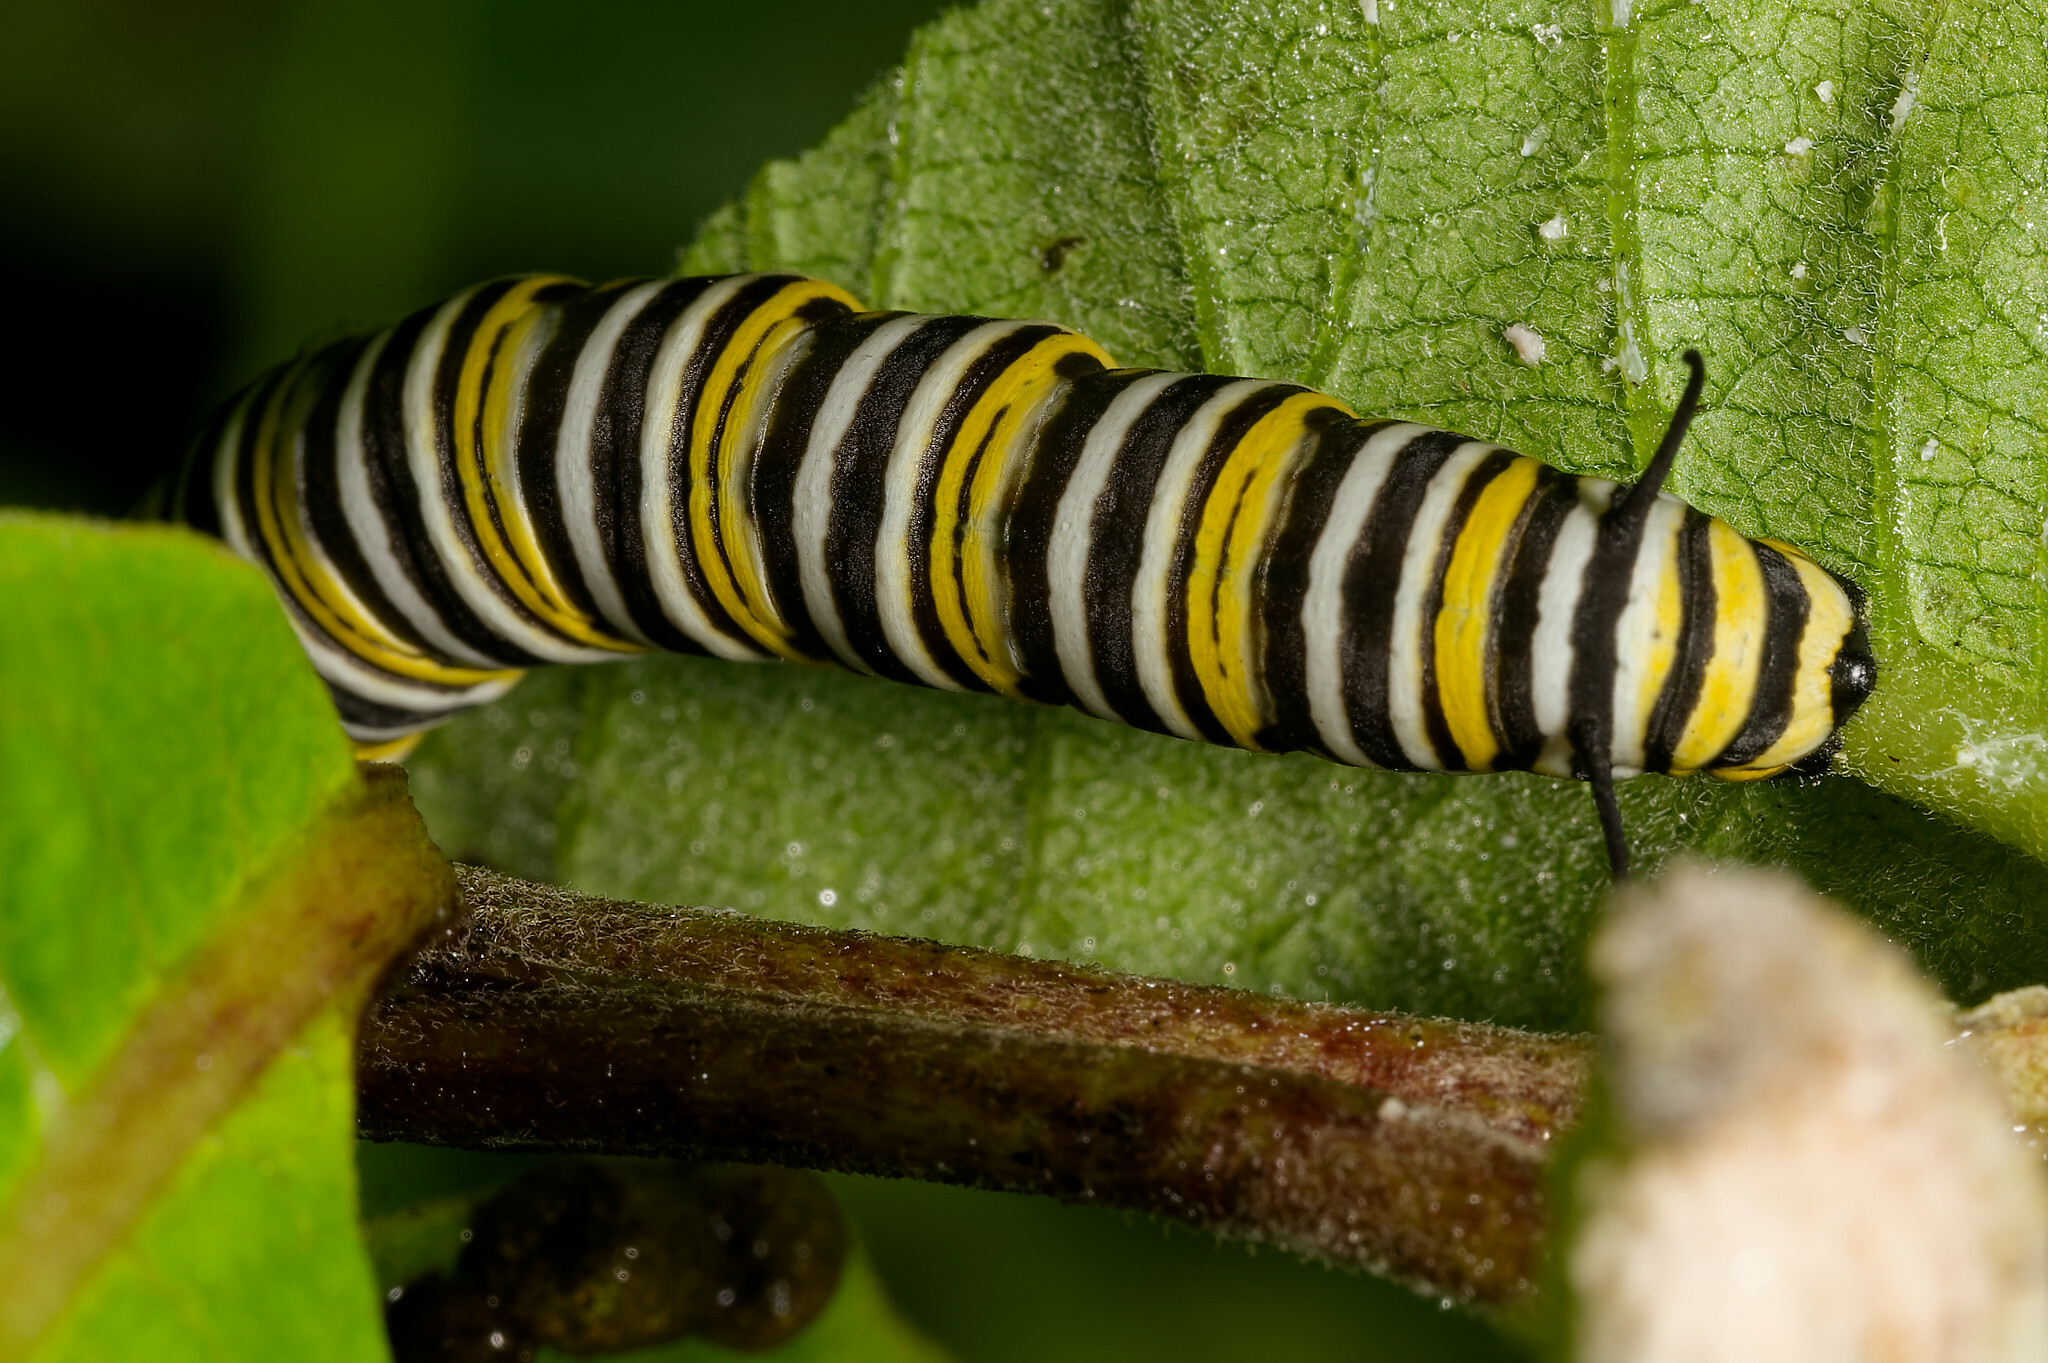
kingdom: Animalia
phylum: Arthropoda
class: Insecta
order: Lepidoptera
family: Nymphalidae
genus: Danaus
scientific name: Danaus plexippus
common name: Monarch
